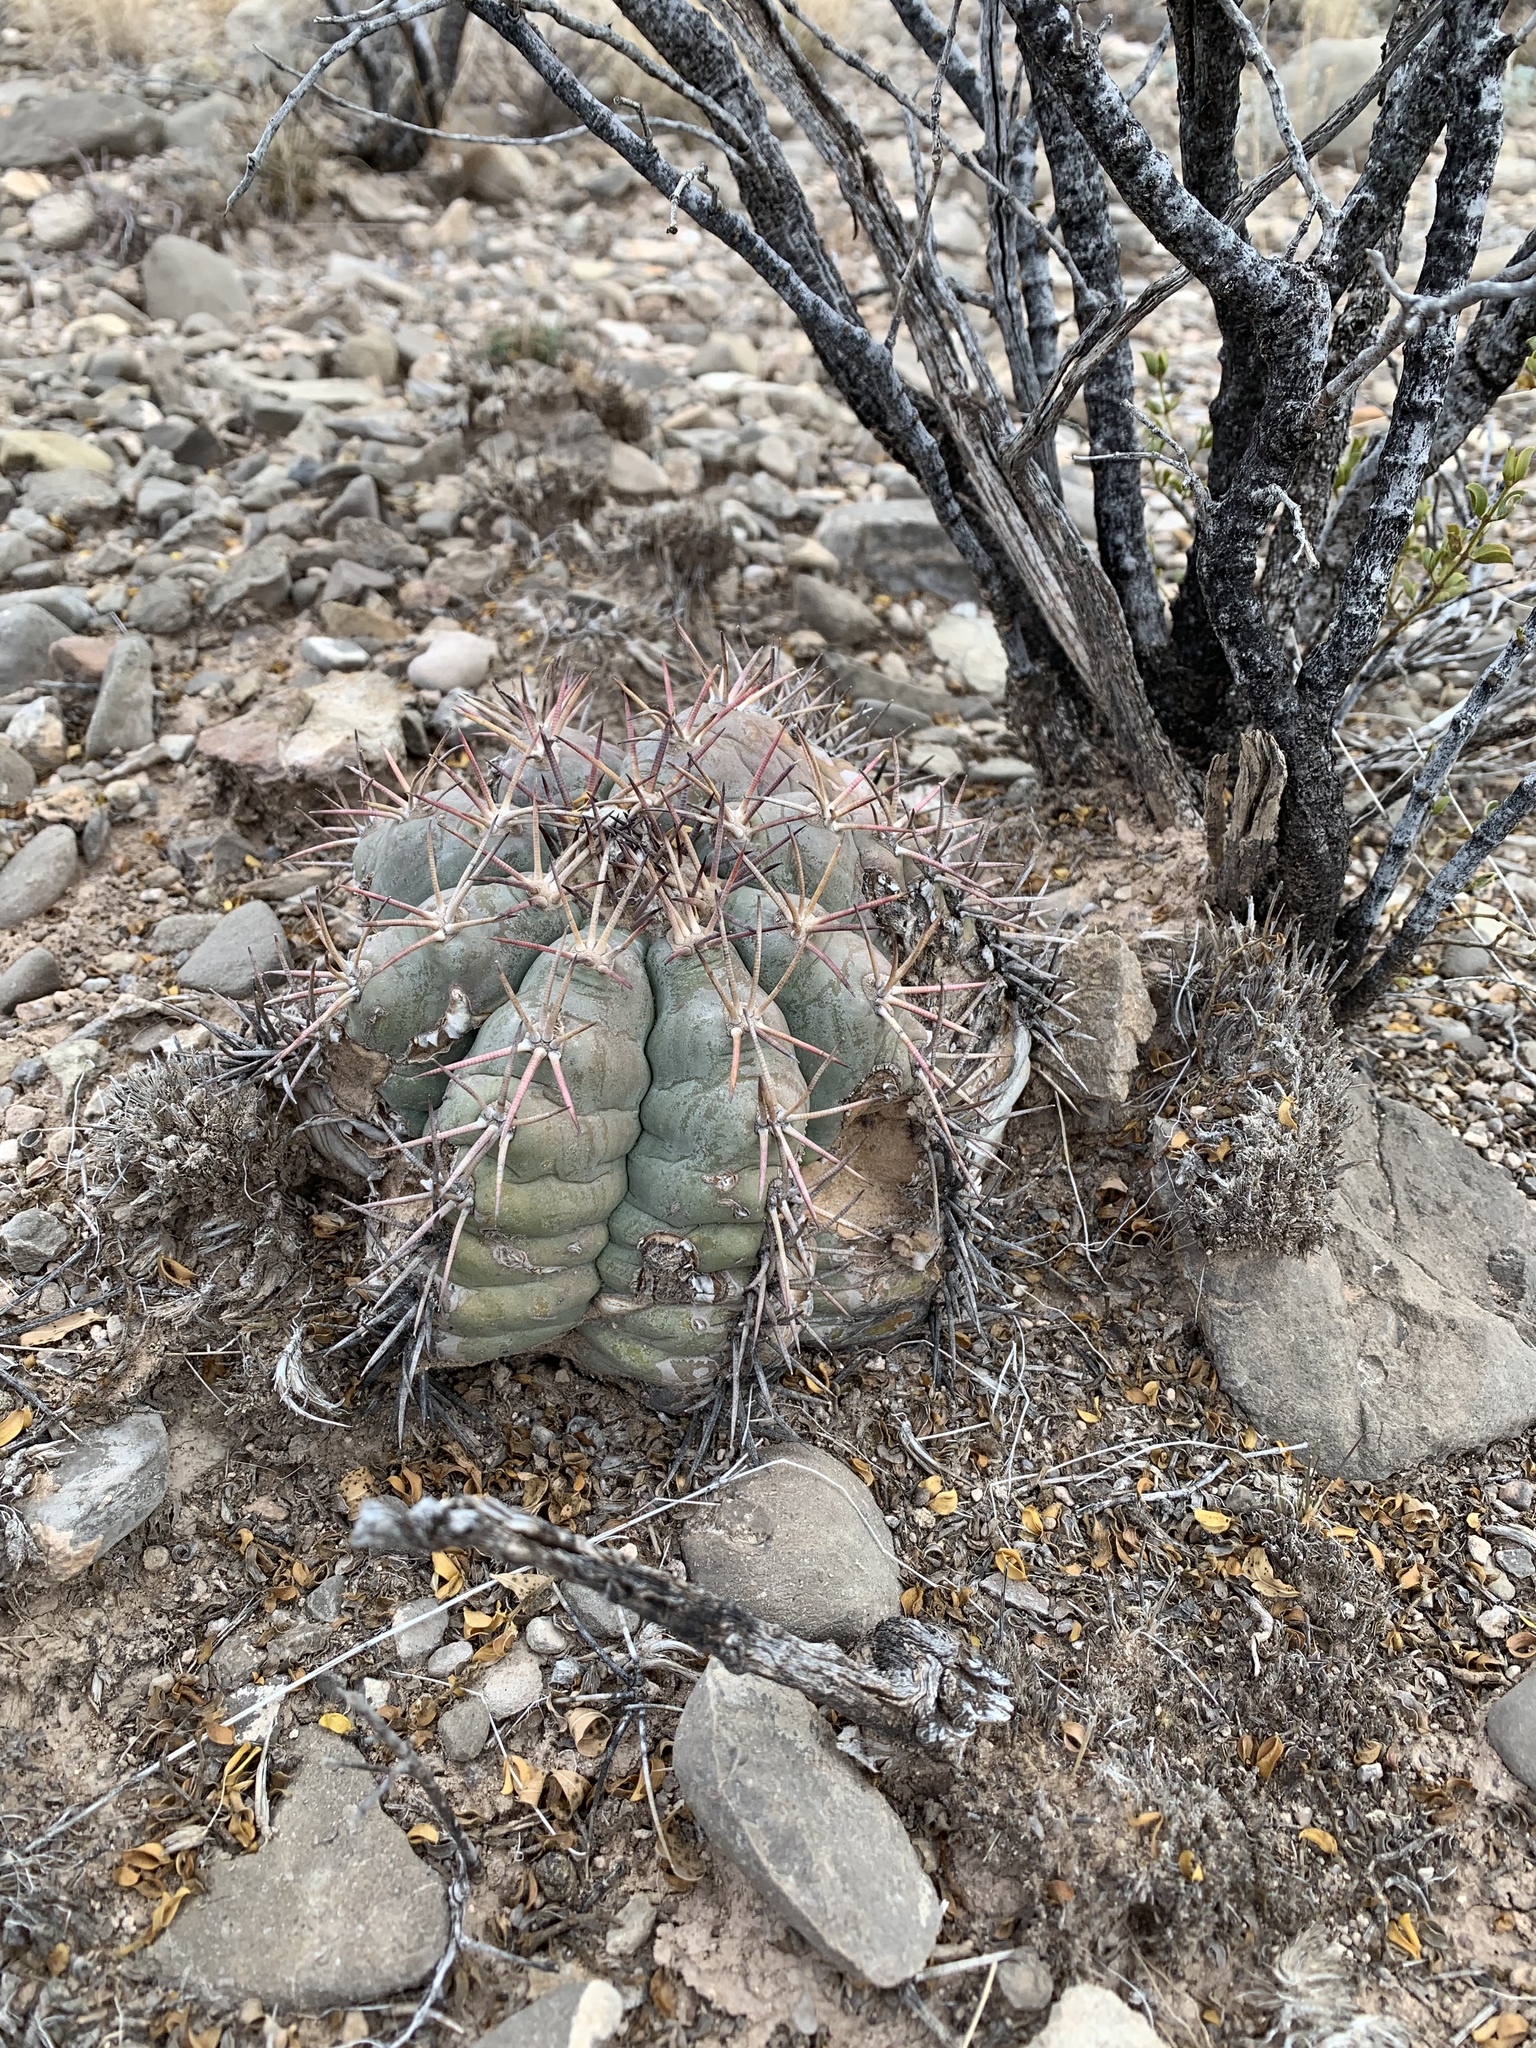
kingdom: Plantae
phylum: Tracheophyta
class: Magnoliopsida
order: Caryophyllales
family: Cactaceae
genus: Echinocactus
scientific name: Echinocactus horizonthalonius
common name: Devilshead
